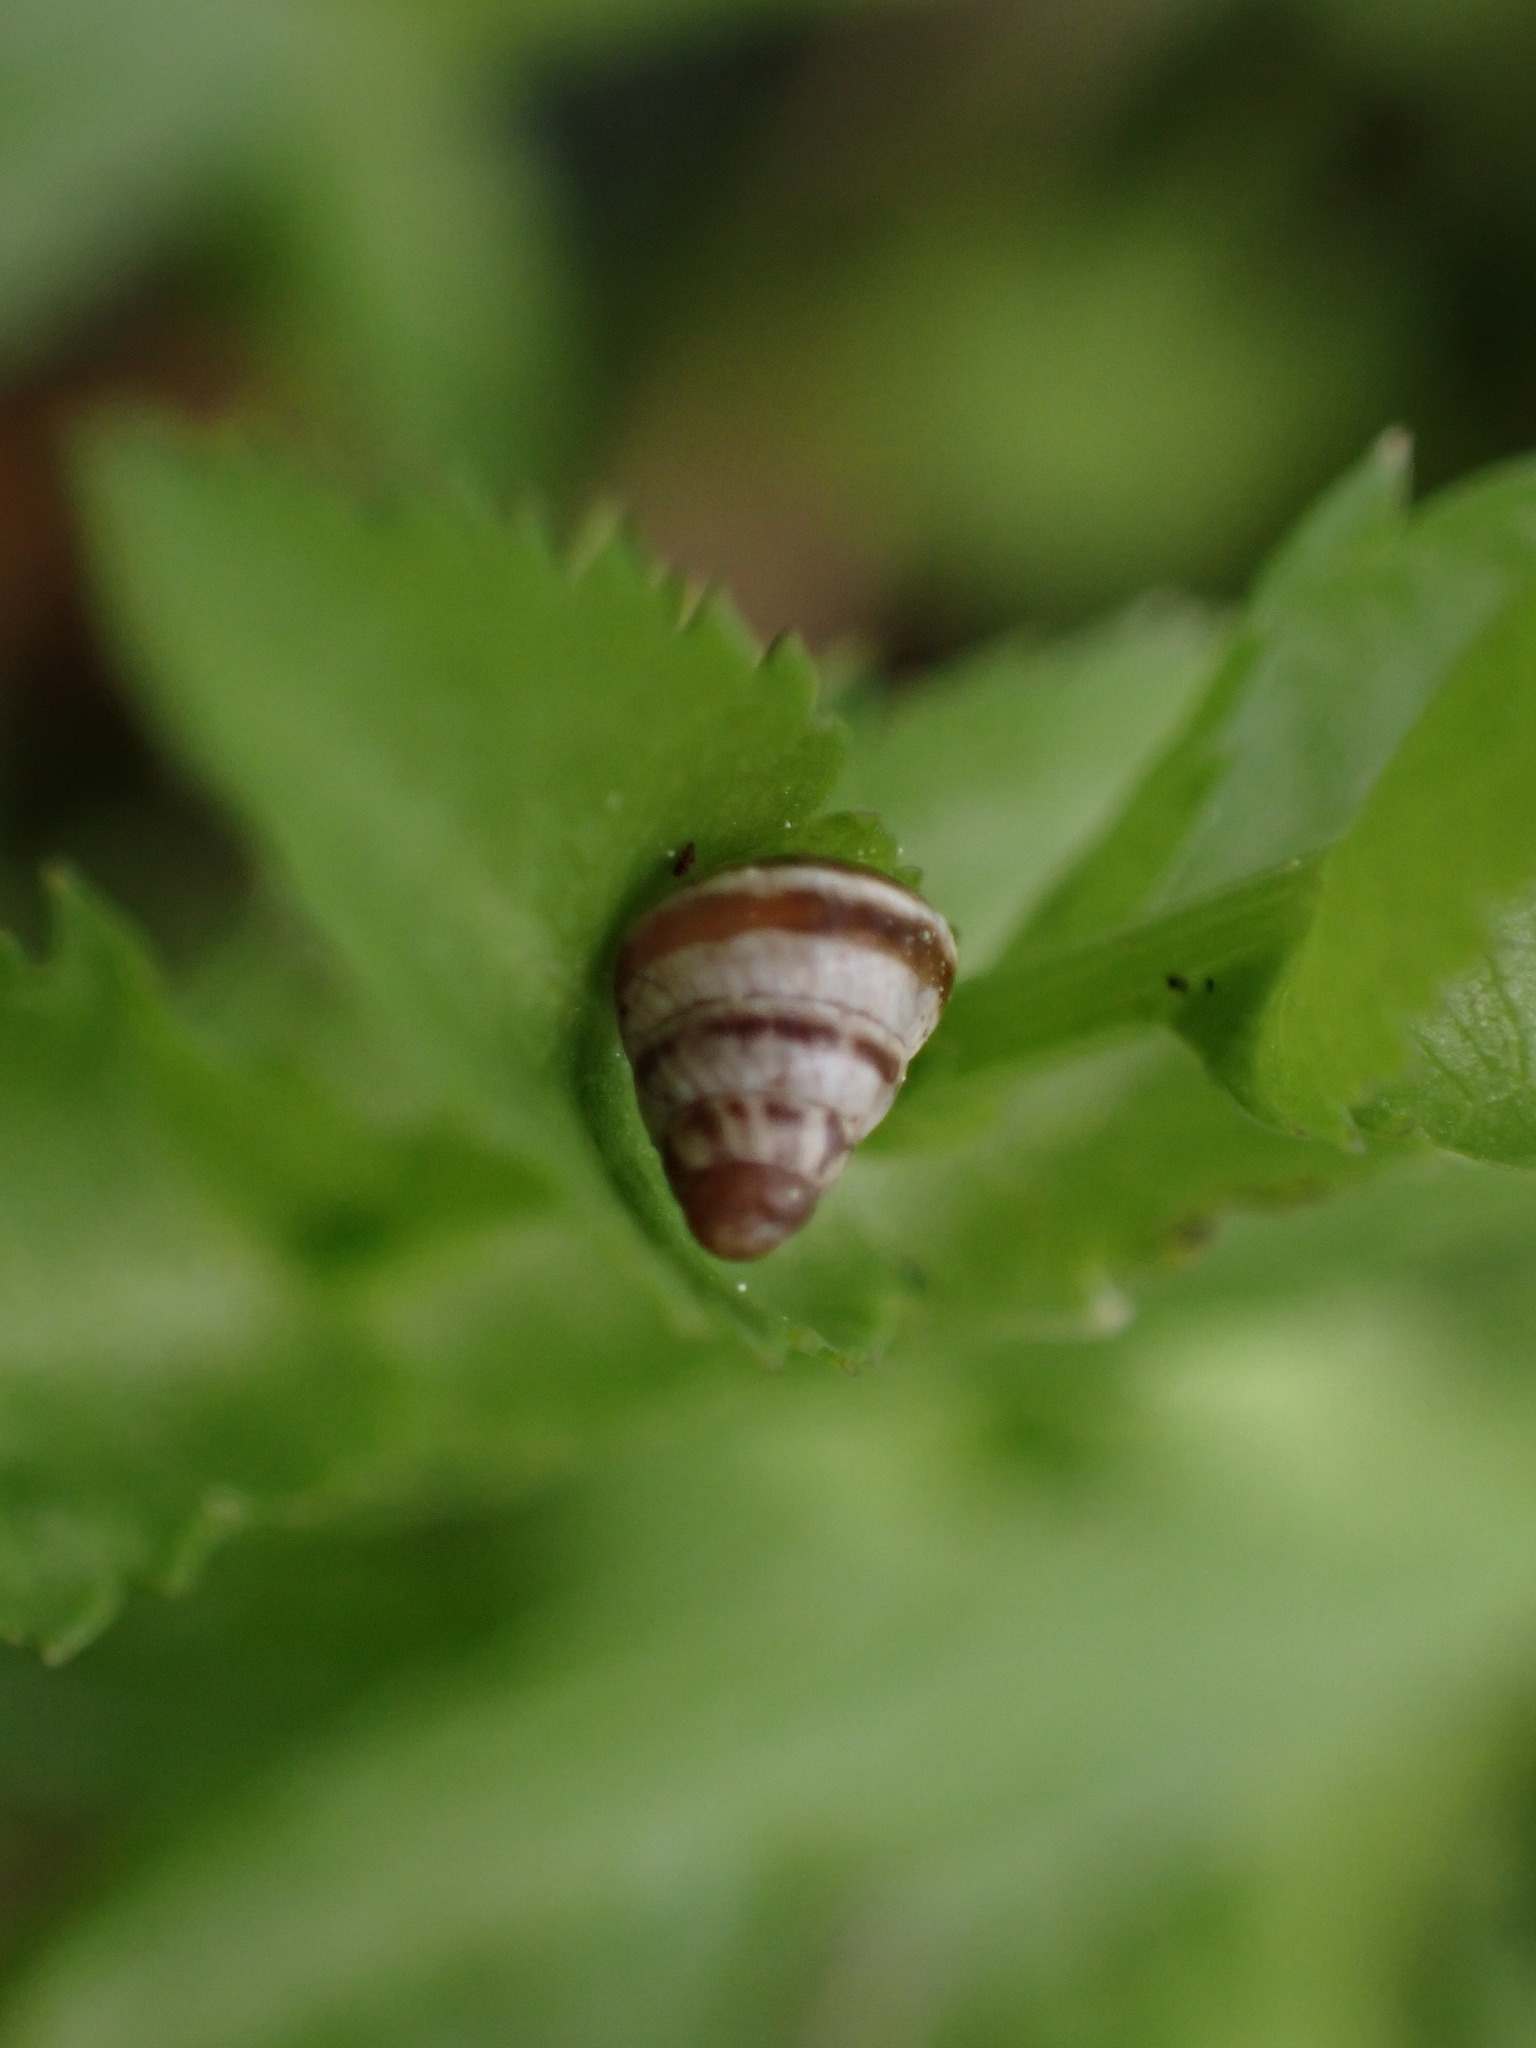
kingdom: Animalia
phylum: Mollusca
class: Gastropoda
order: Stylommatophora
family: Geomitridae
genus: Cochlicella
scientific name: Cochlicella barbara
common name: Potbellied helicellid
